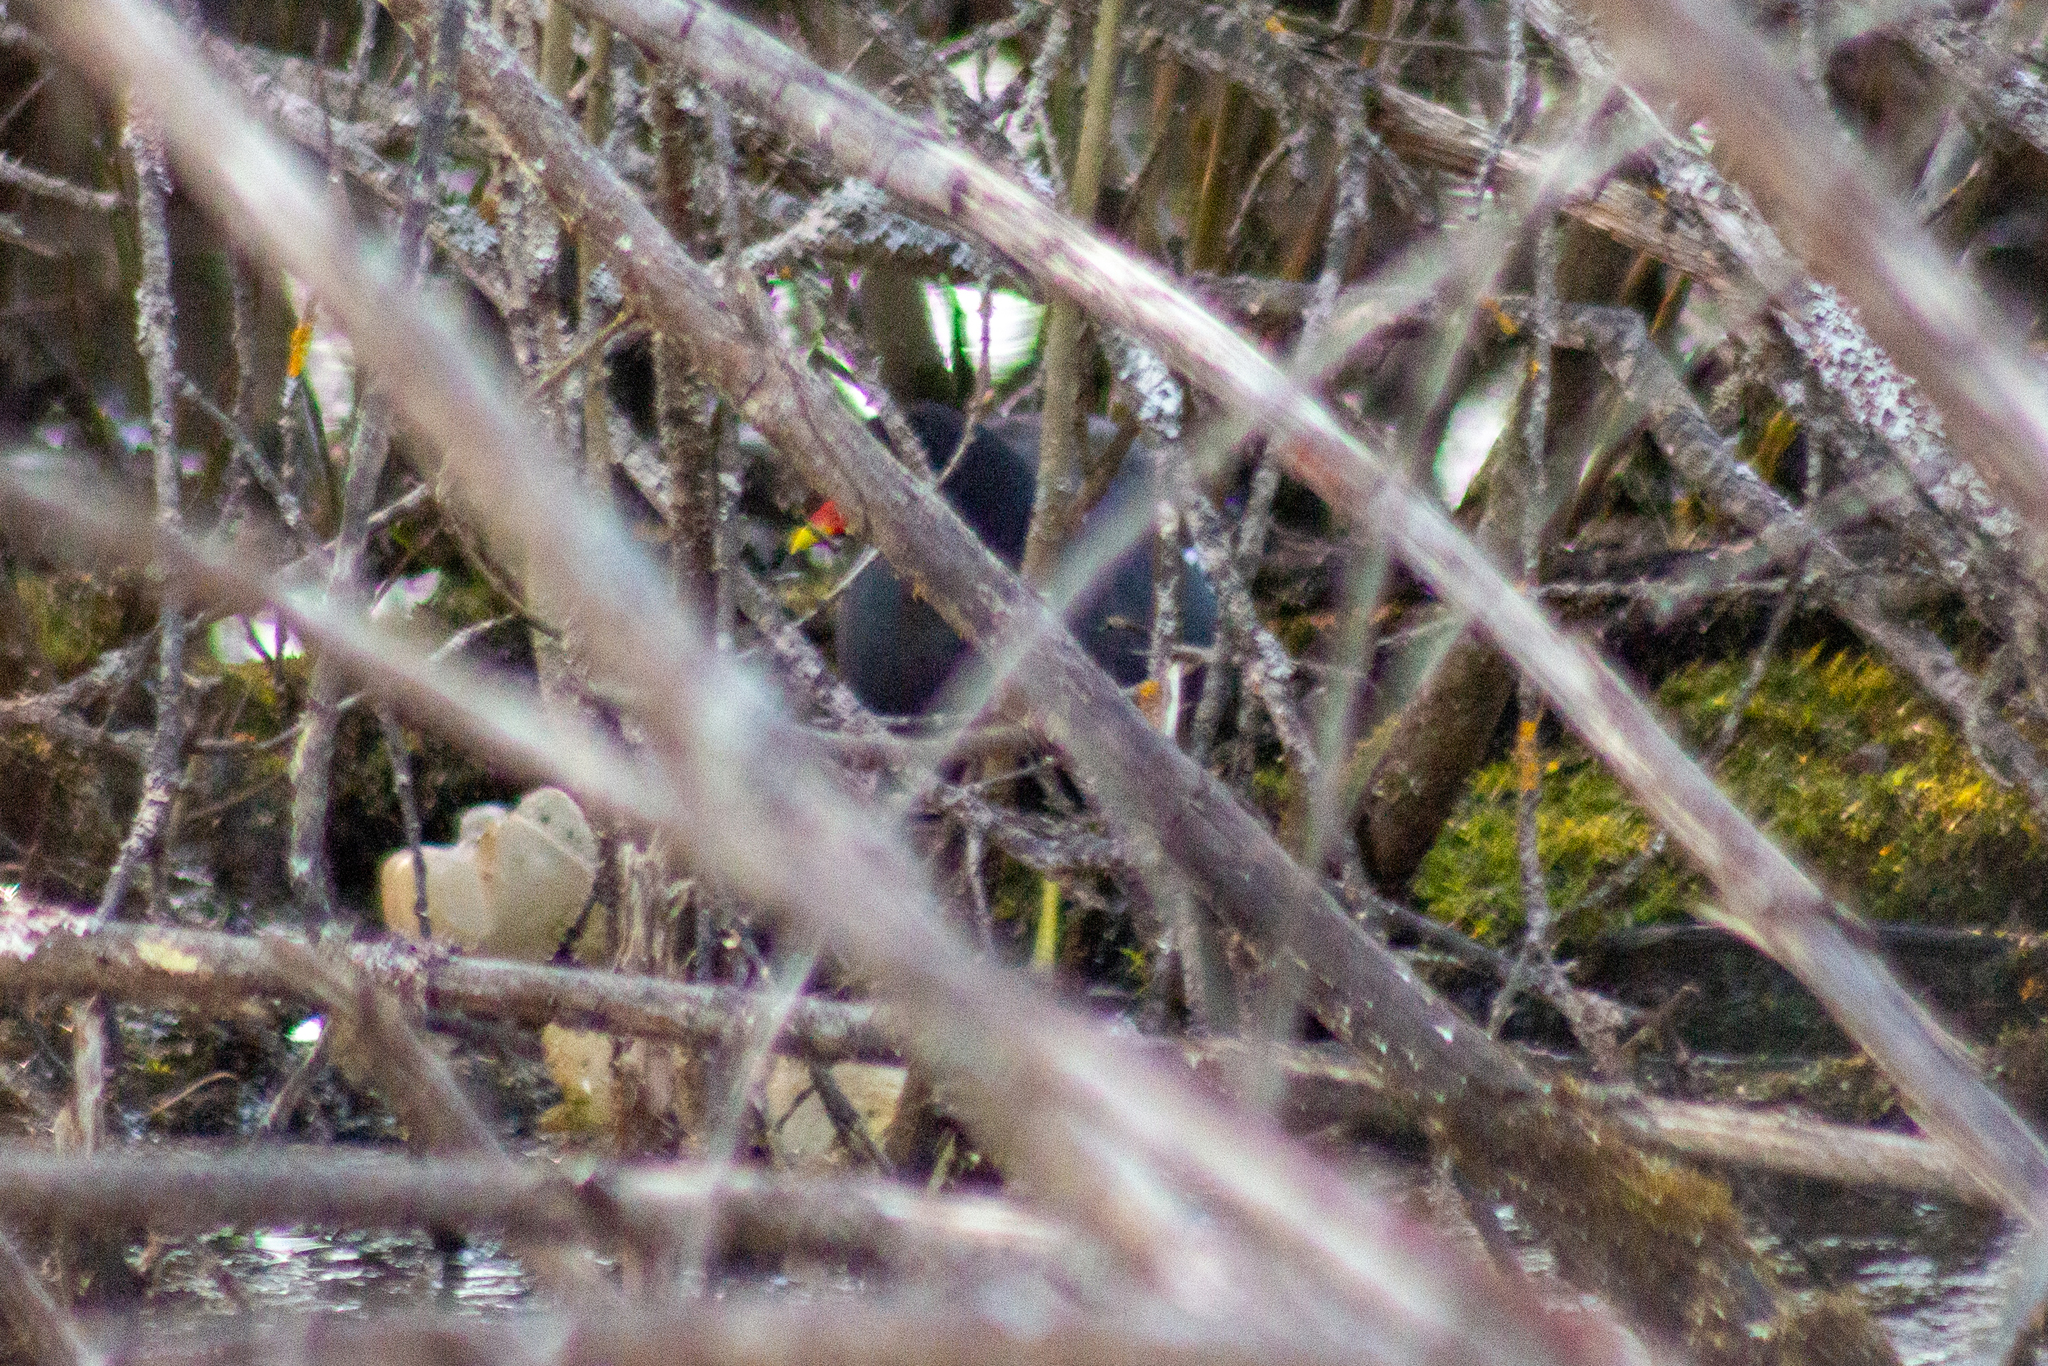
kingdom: Animalia
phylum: Chordata
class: Aves
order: Gruiformes
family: Rallidae
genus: Gallinula
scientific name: Gallinula chloropus
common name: Common moorhen
